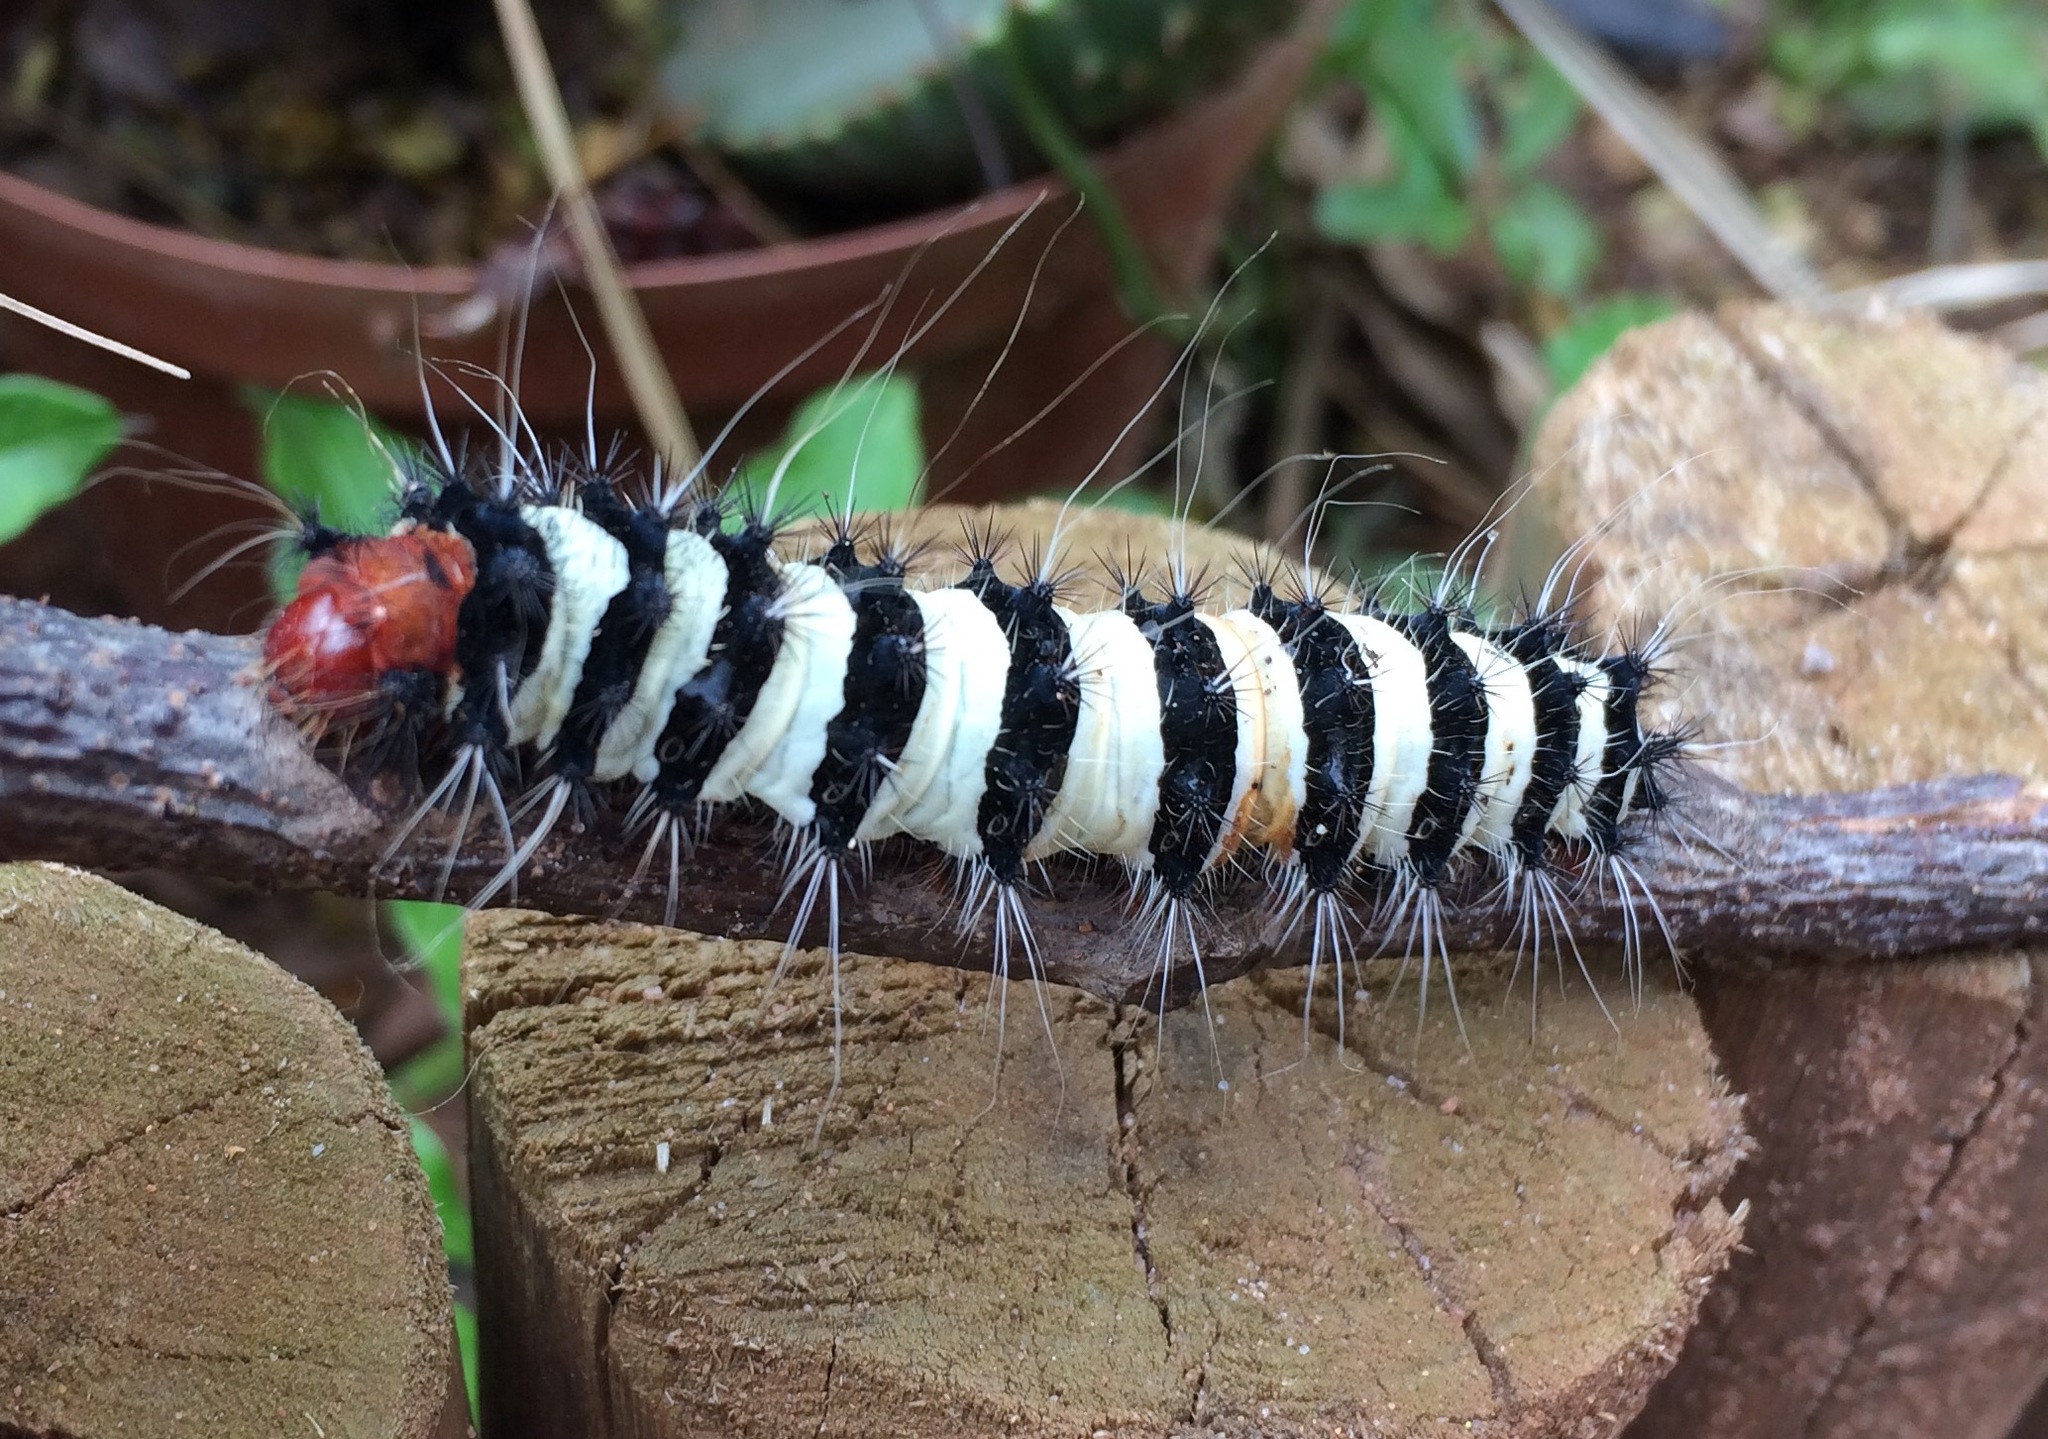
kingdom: Animalia
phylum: Arthropoda
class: Insecta
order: Lepidoptera
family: Saturniidae
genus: Holocerina
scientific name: Holocerina smilax
